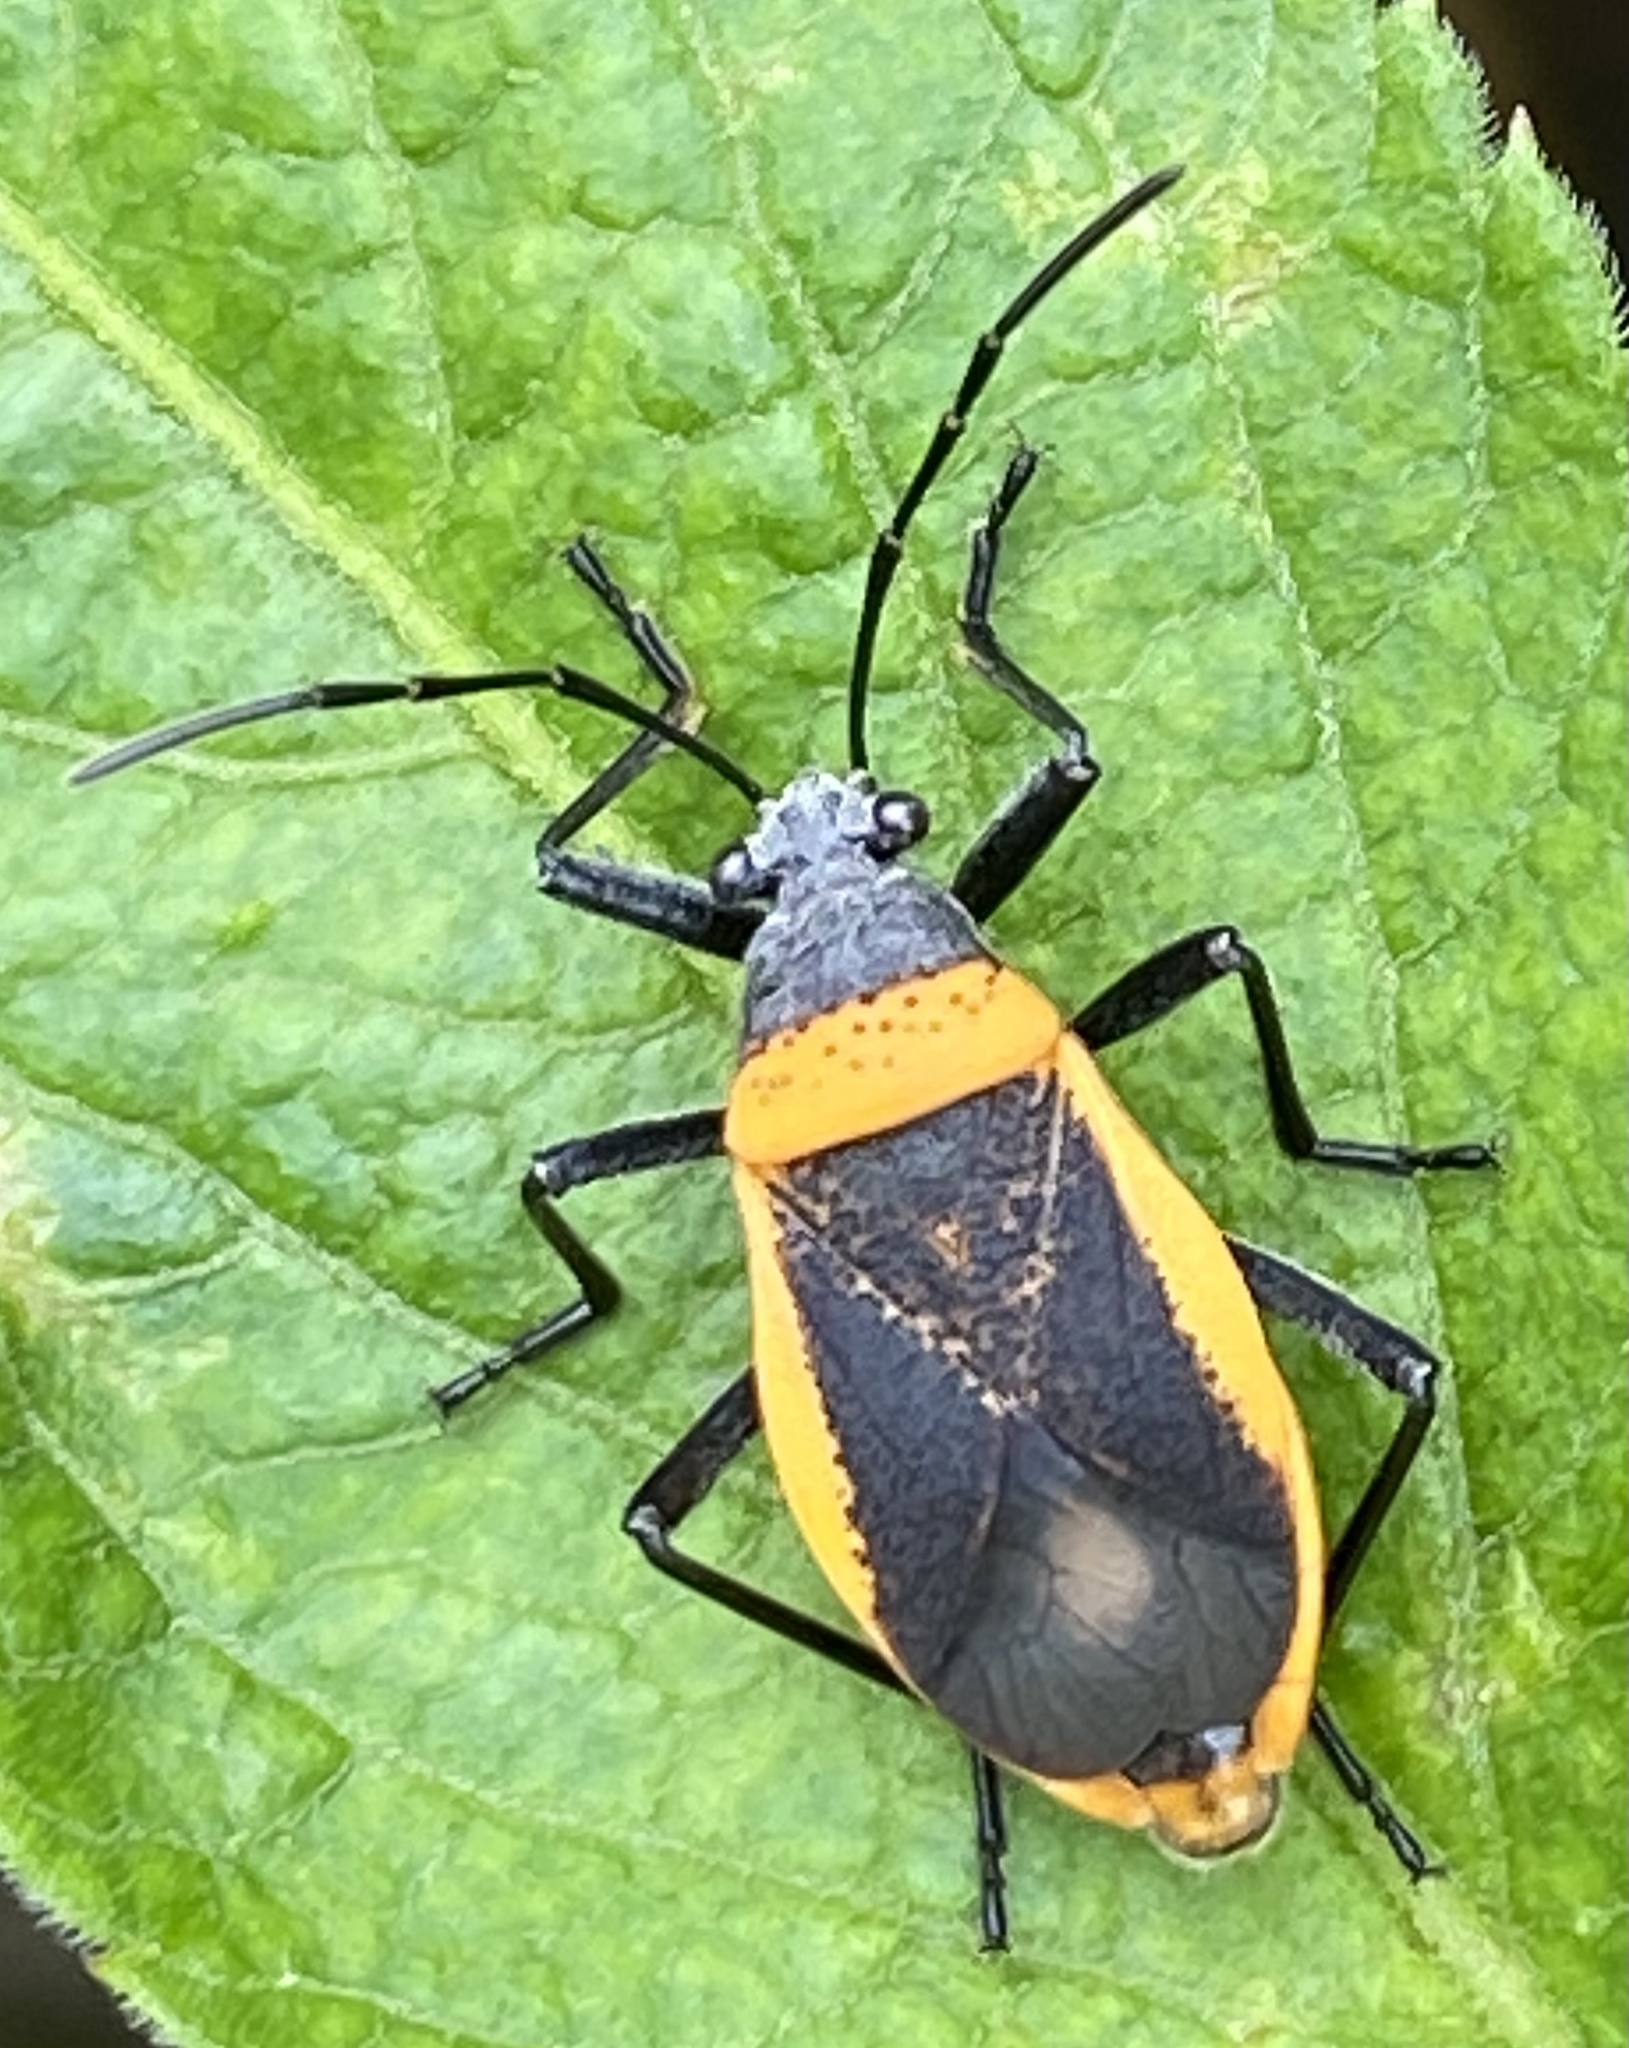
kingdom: Animalia
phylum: Arthropoda
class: Insecta
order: Hemiptera
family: Largidae
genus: Largus
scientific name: Largus cinctiventris
